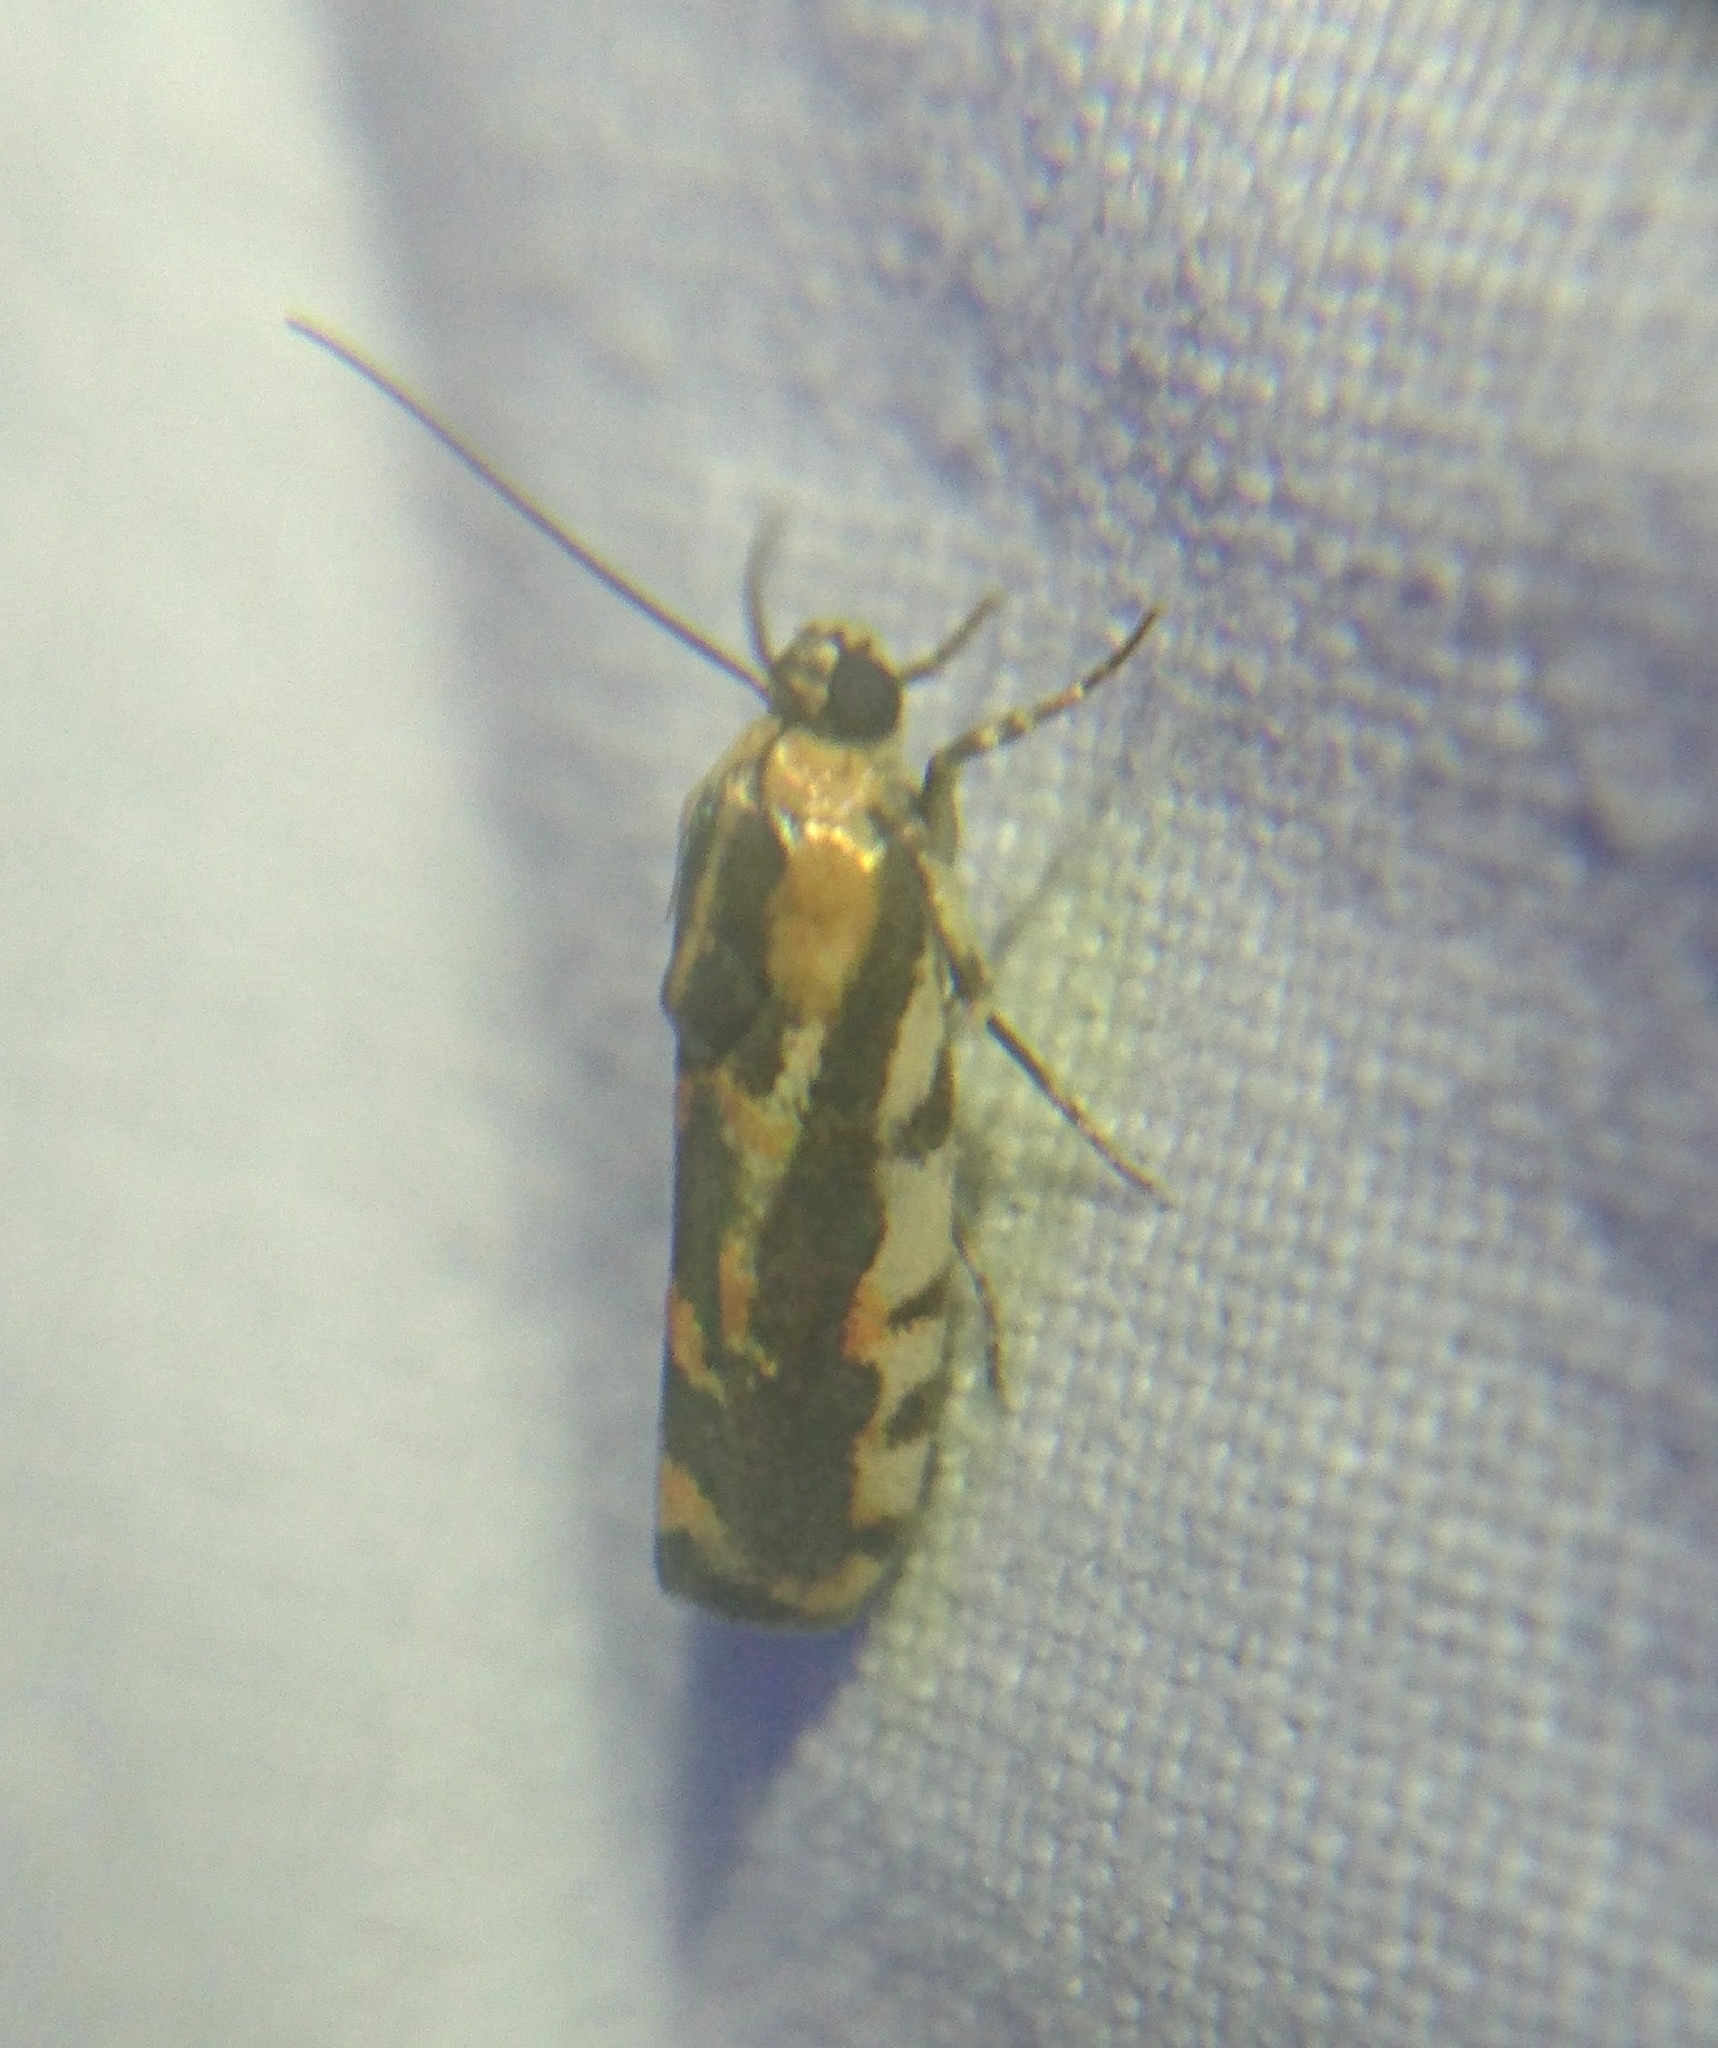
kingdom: Animalia
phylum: Arthropoda
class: Insecta
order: Lepidoptera
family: Noctuidae
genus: Acontia
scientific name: Acontia leo
